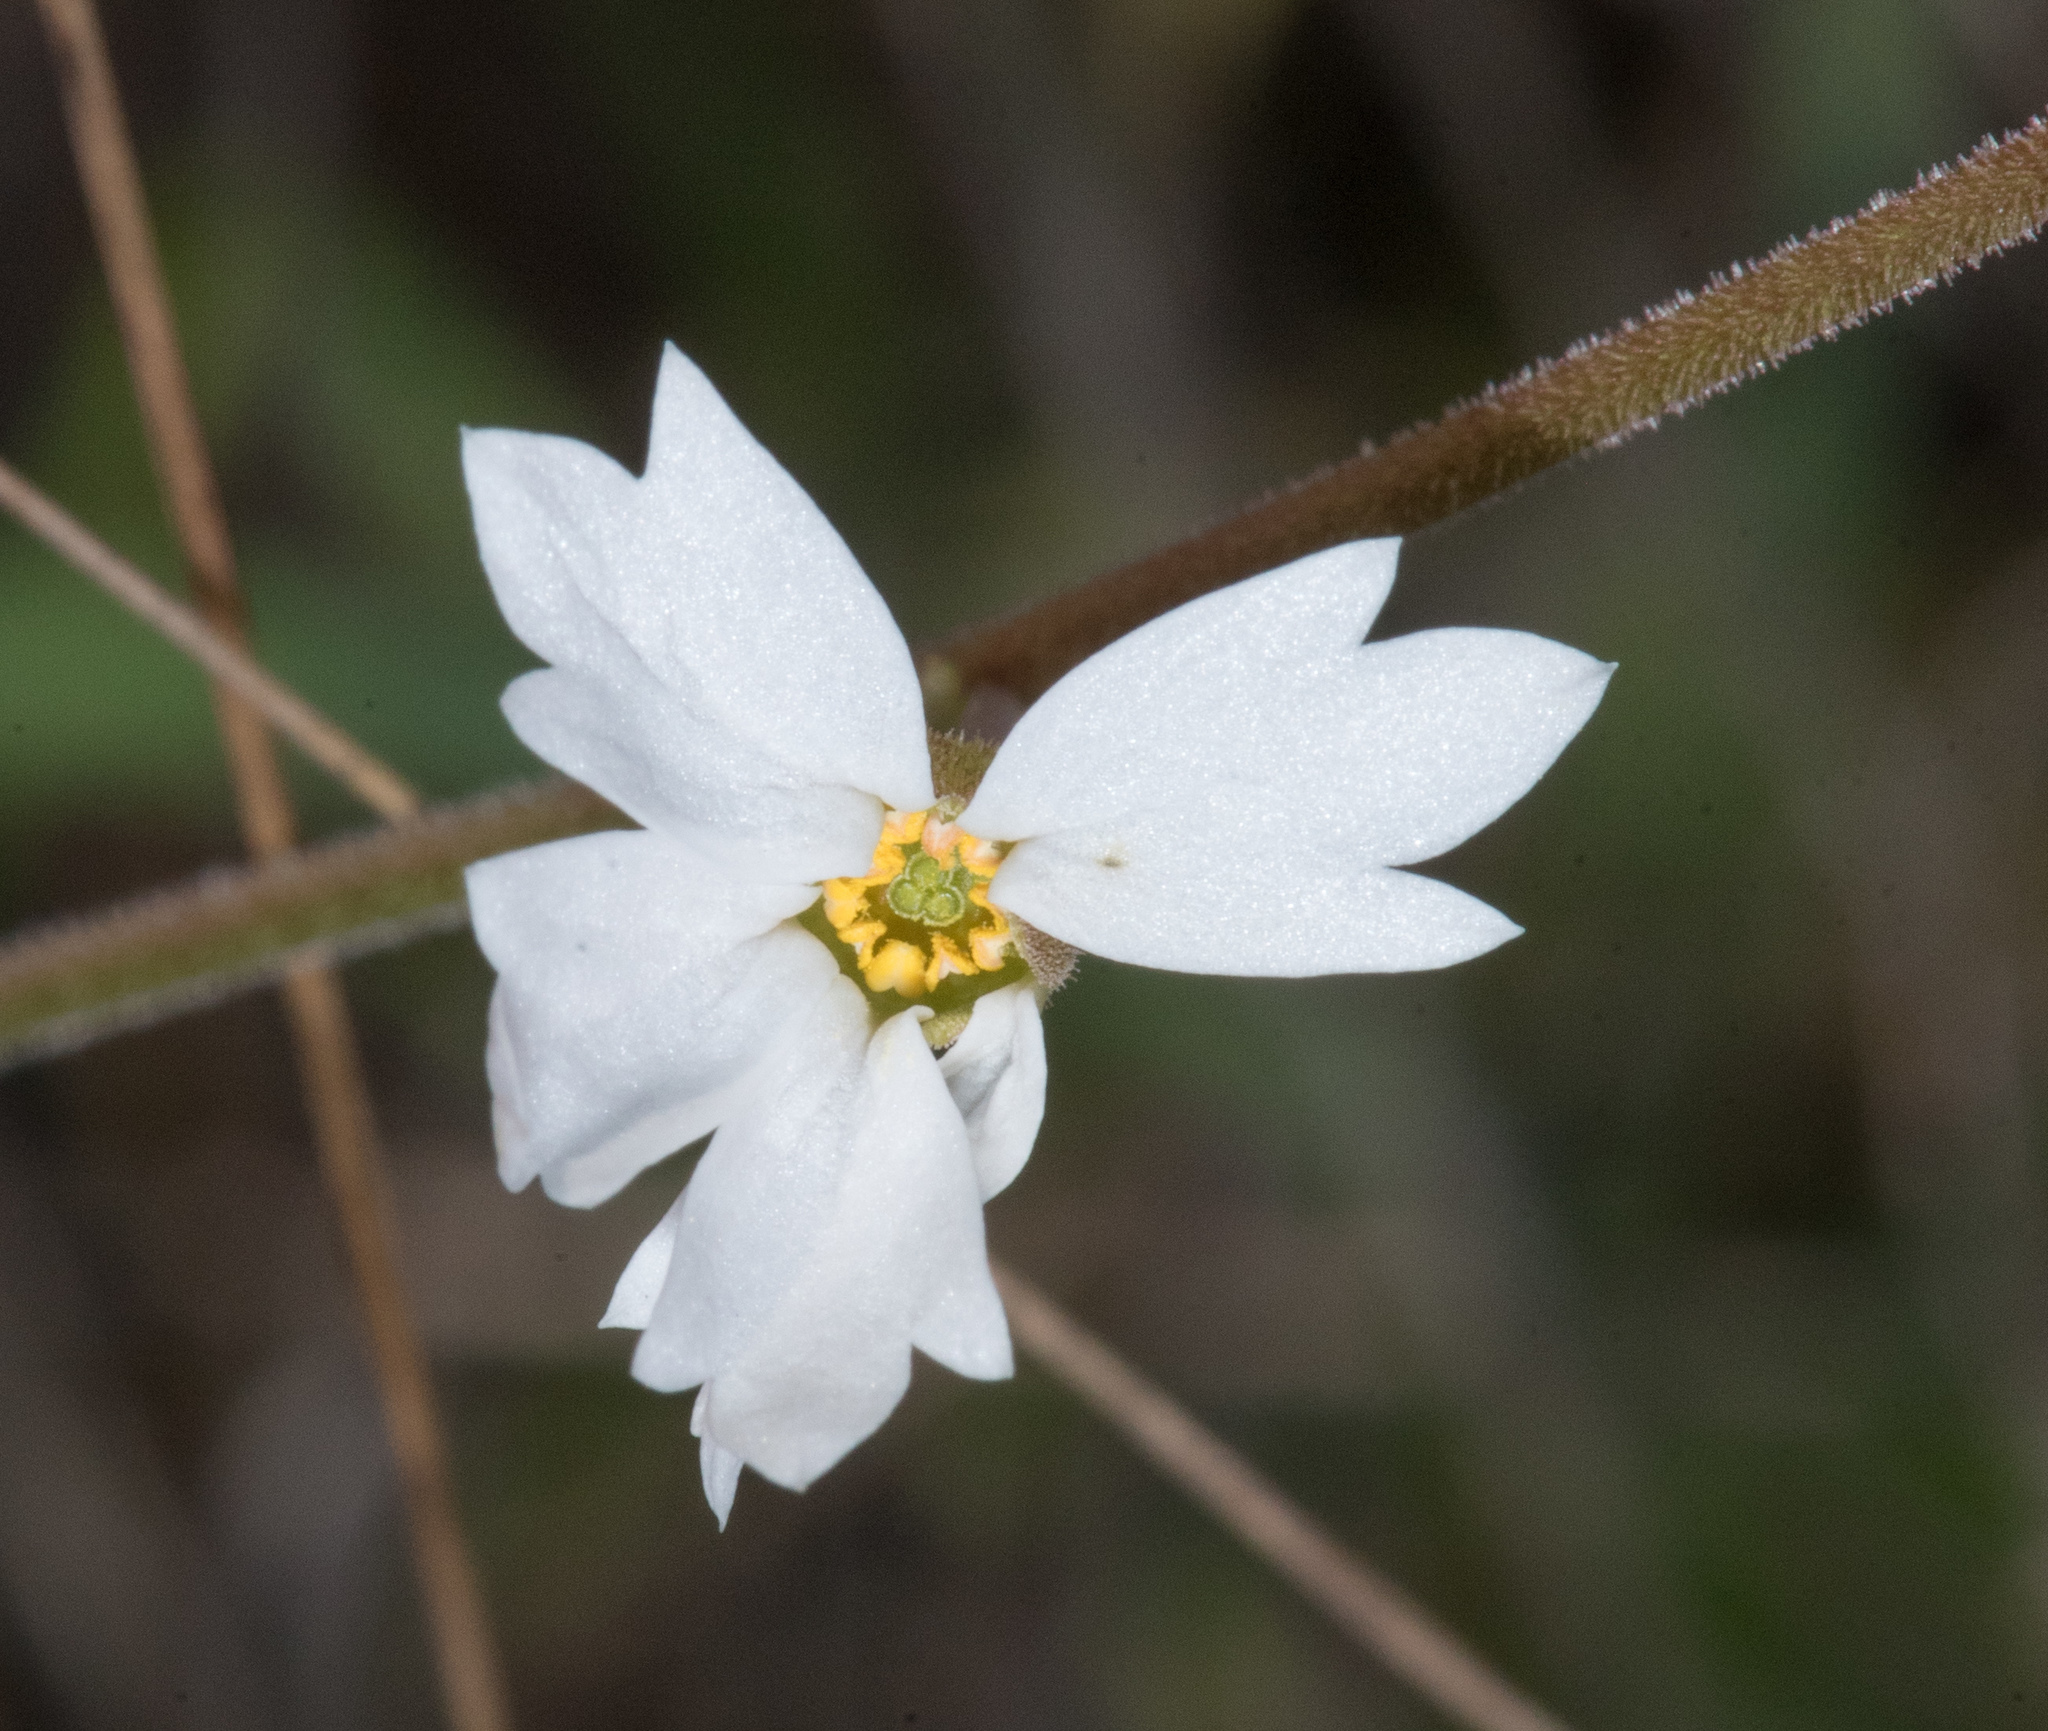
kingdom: Plantae
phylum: Tracheophyta
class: Magnoliopsida
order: Saxifragales
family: Saxifragaceae
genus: Lithophragma
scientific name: Lithophragma affine
